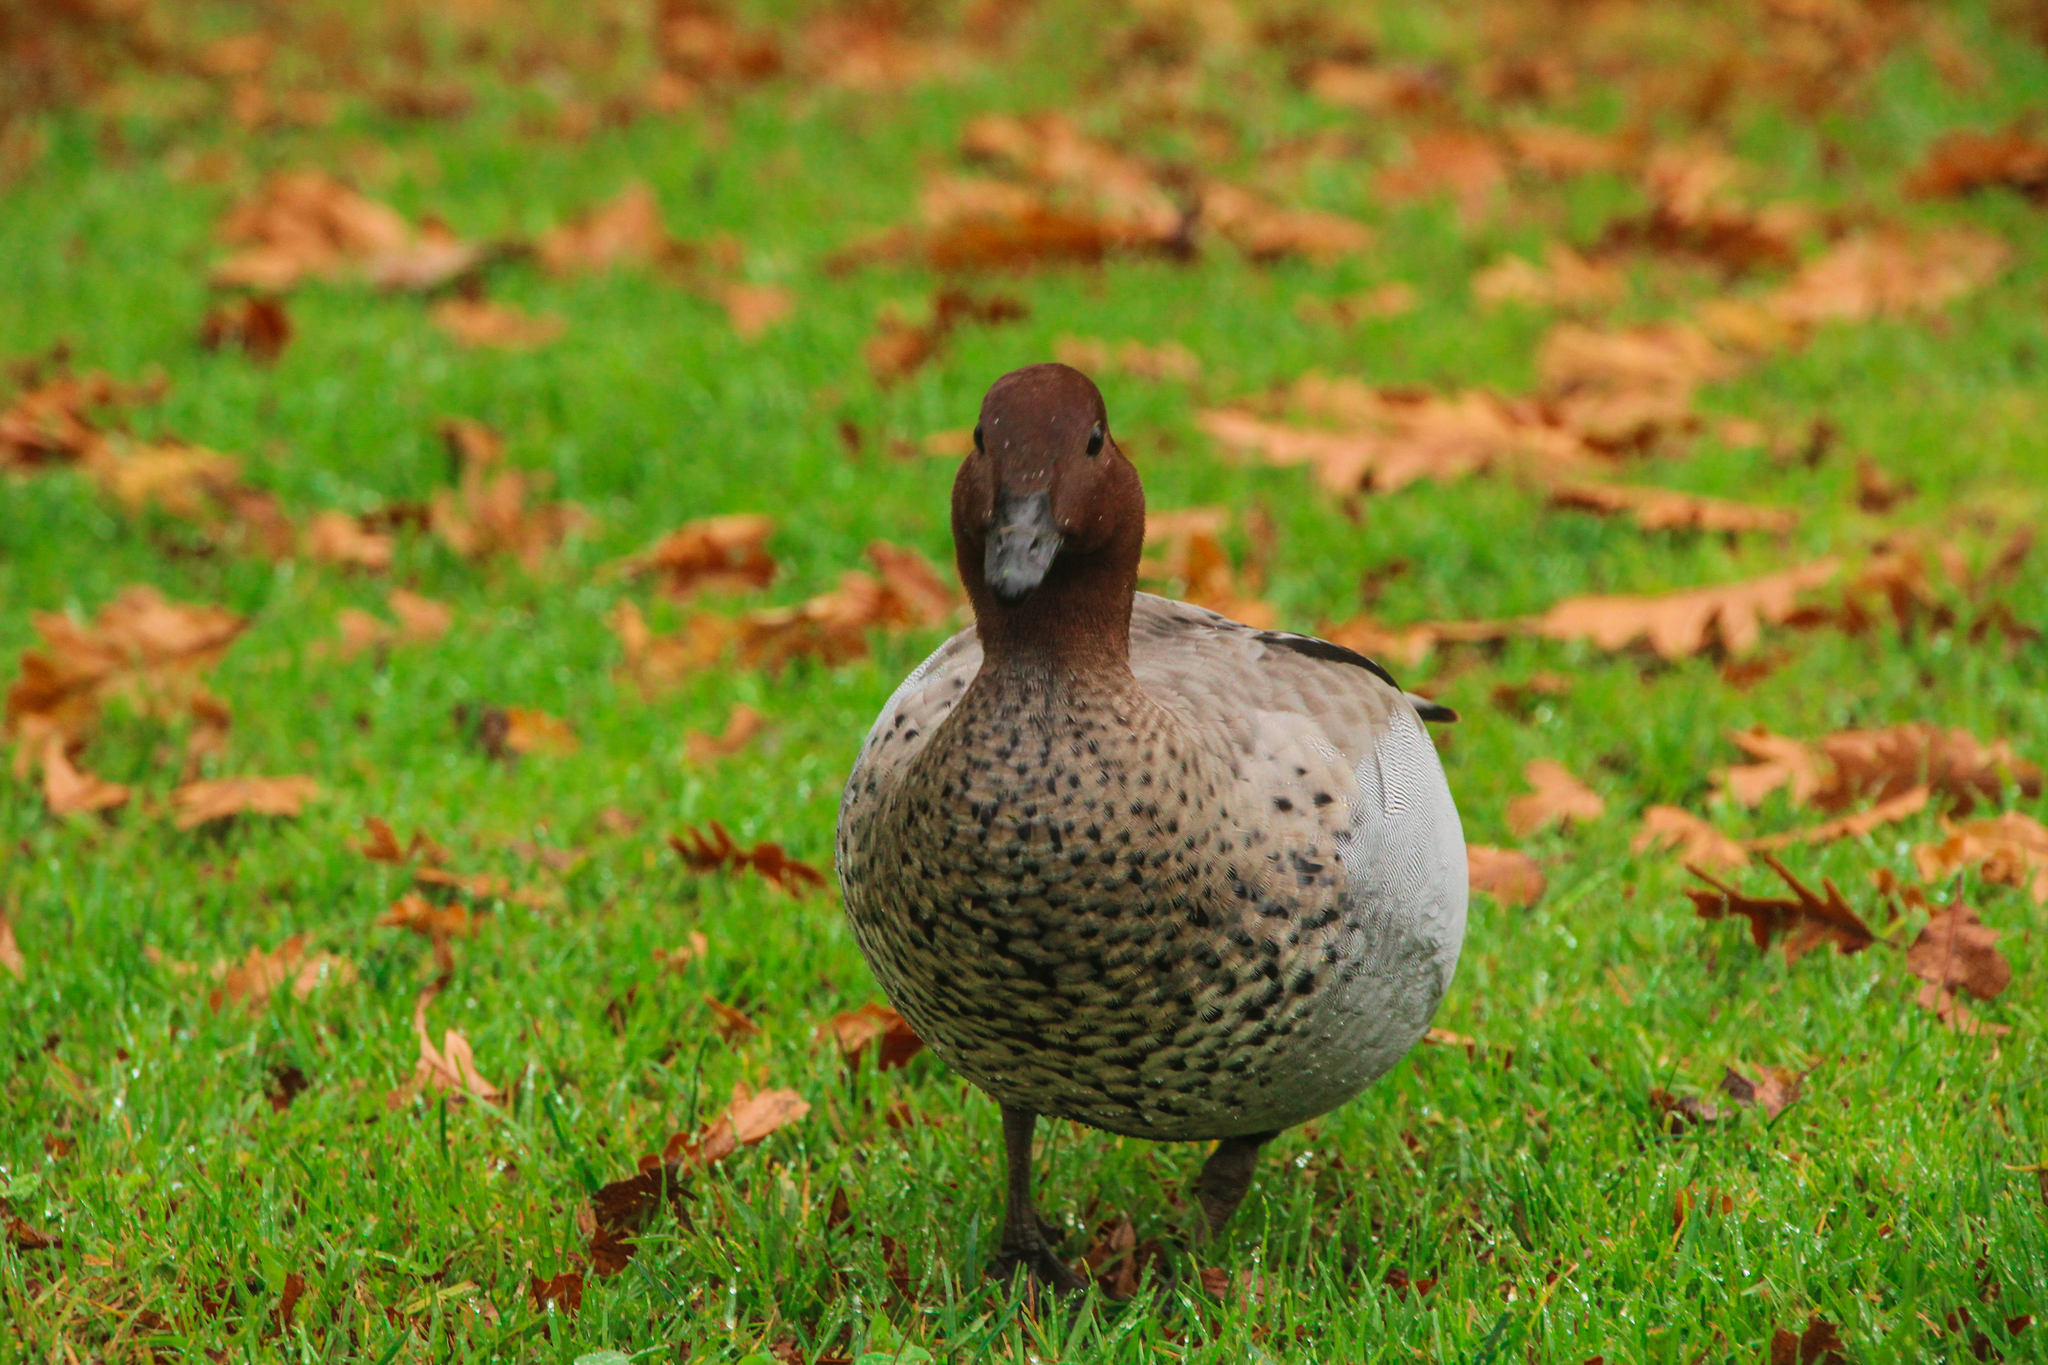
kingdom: Animalia
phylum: Chordata
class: Aves
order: Anseriformes
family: Anatidae
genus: Chenonetta
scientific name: Chenonetta jubata
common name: Maned duck
